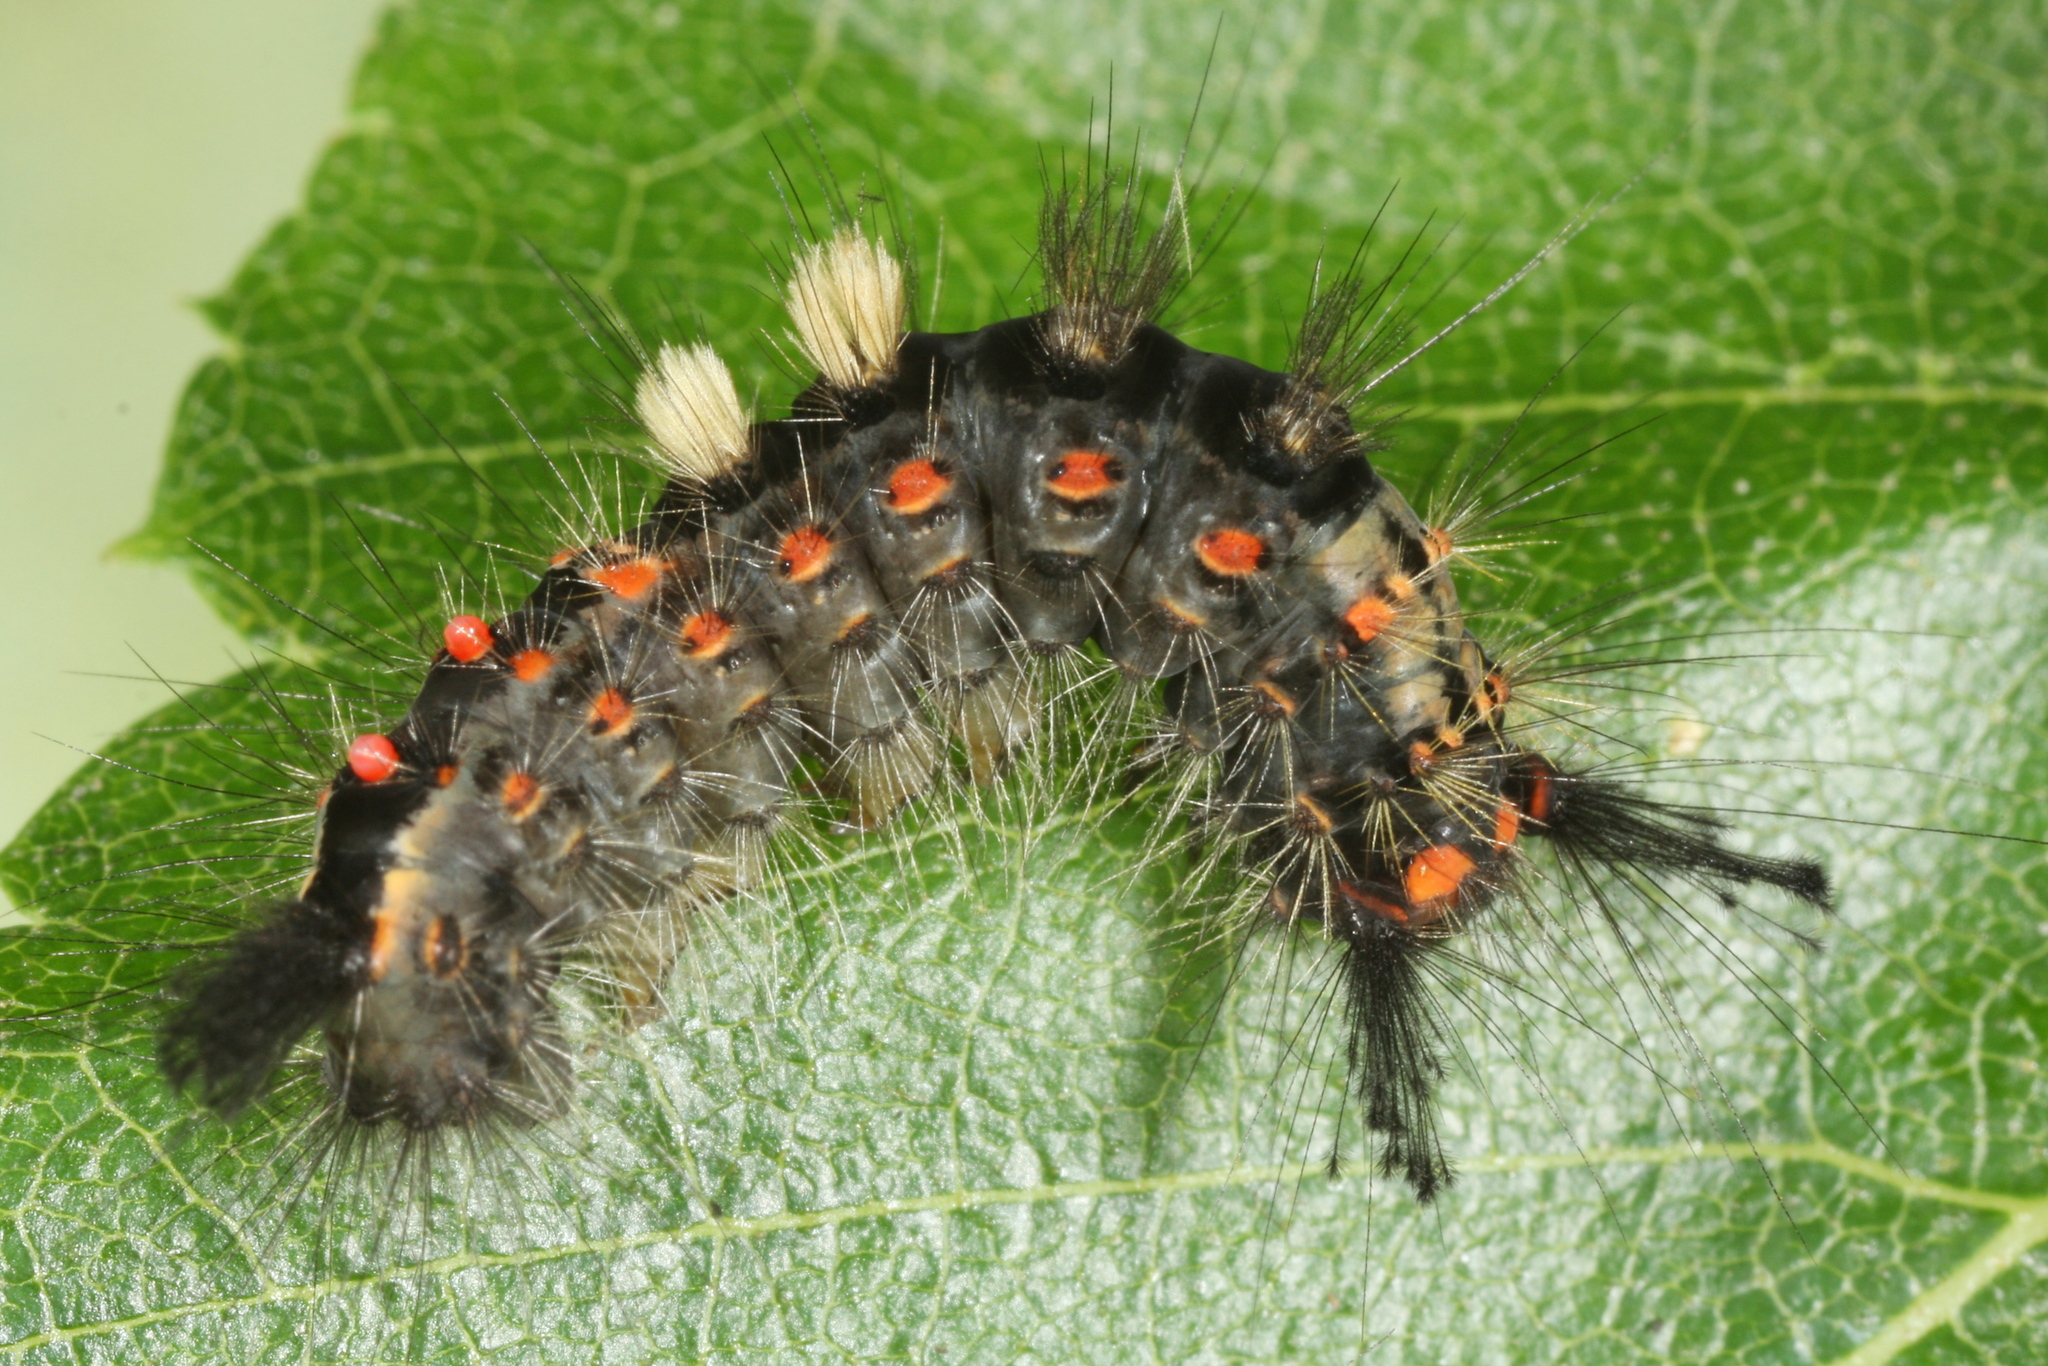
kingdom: Animalia
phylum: Arthropoda
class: Insecta
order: Lepidoptera
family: Erebidae
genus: Orgyia
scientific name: Orgyia antiqua
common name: Vapourer
